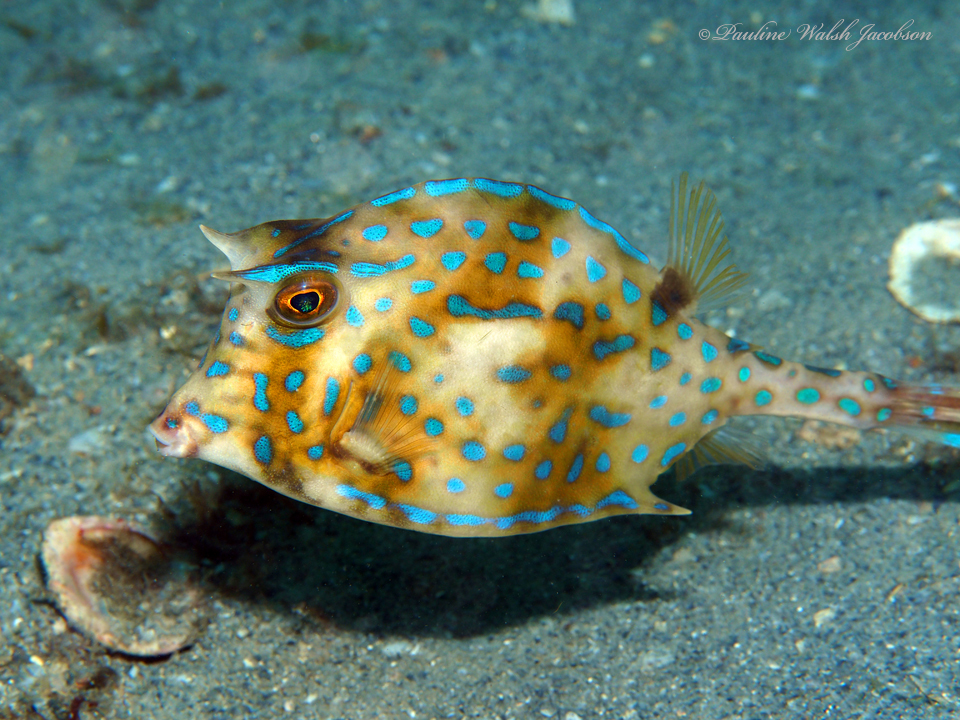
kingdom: Animalia
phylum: Chordata
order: Tetraodontiformes
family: Ostraciidae
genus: Acanthostracion
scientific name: Acanthostracion quadricornis
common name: Scrawled cowfish
